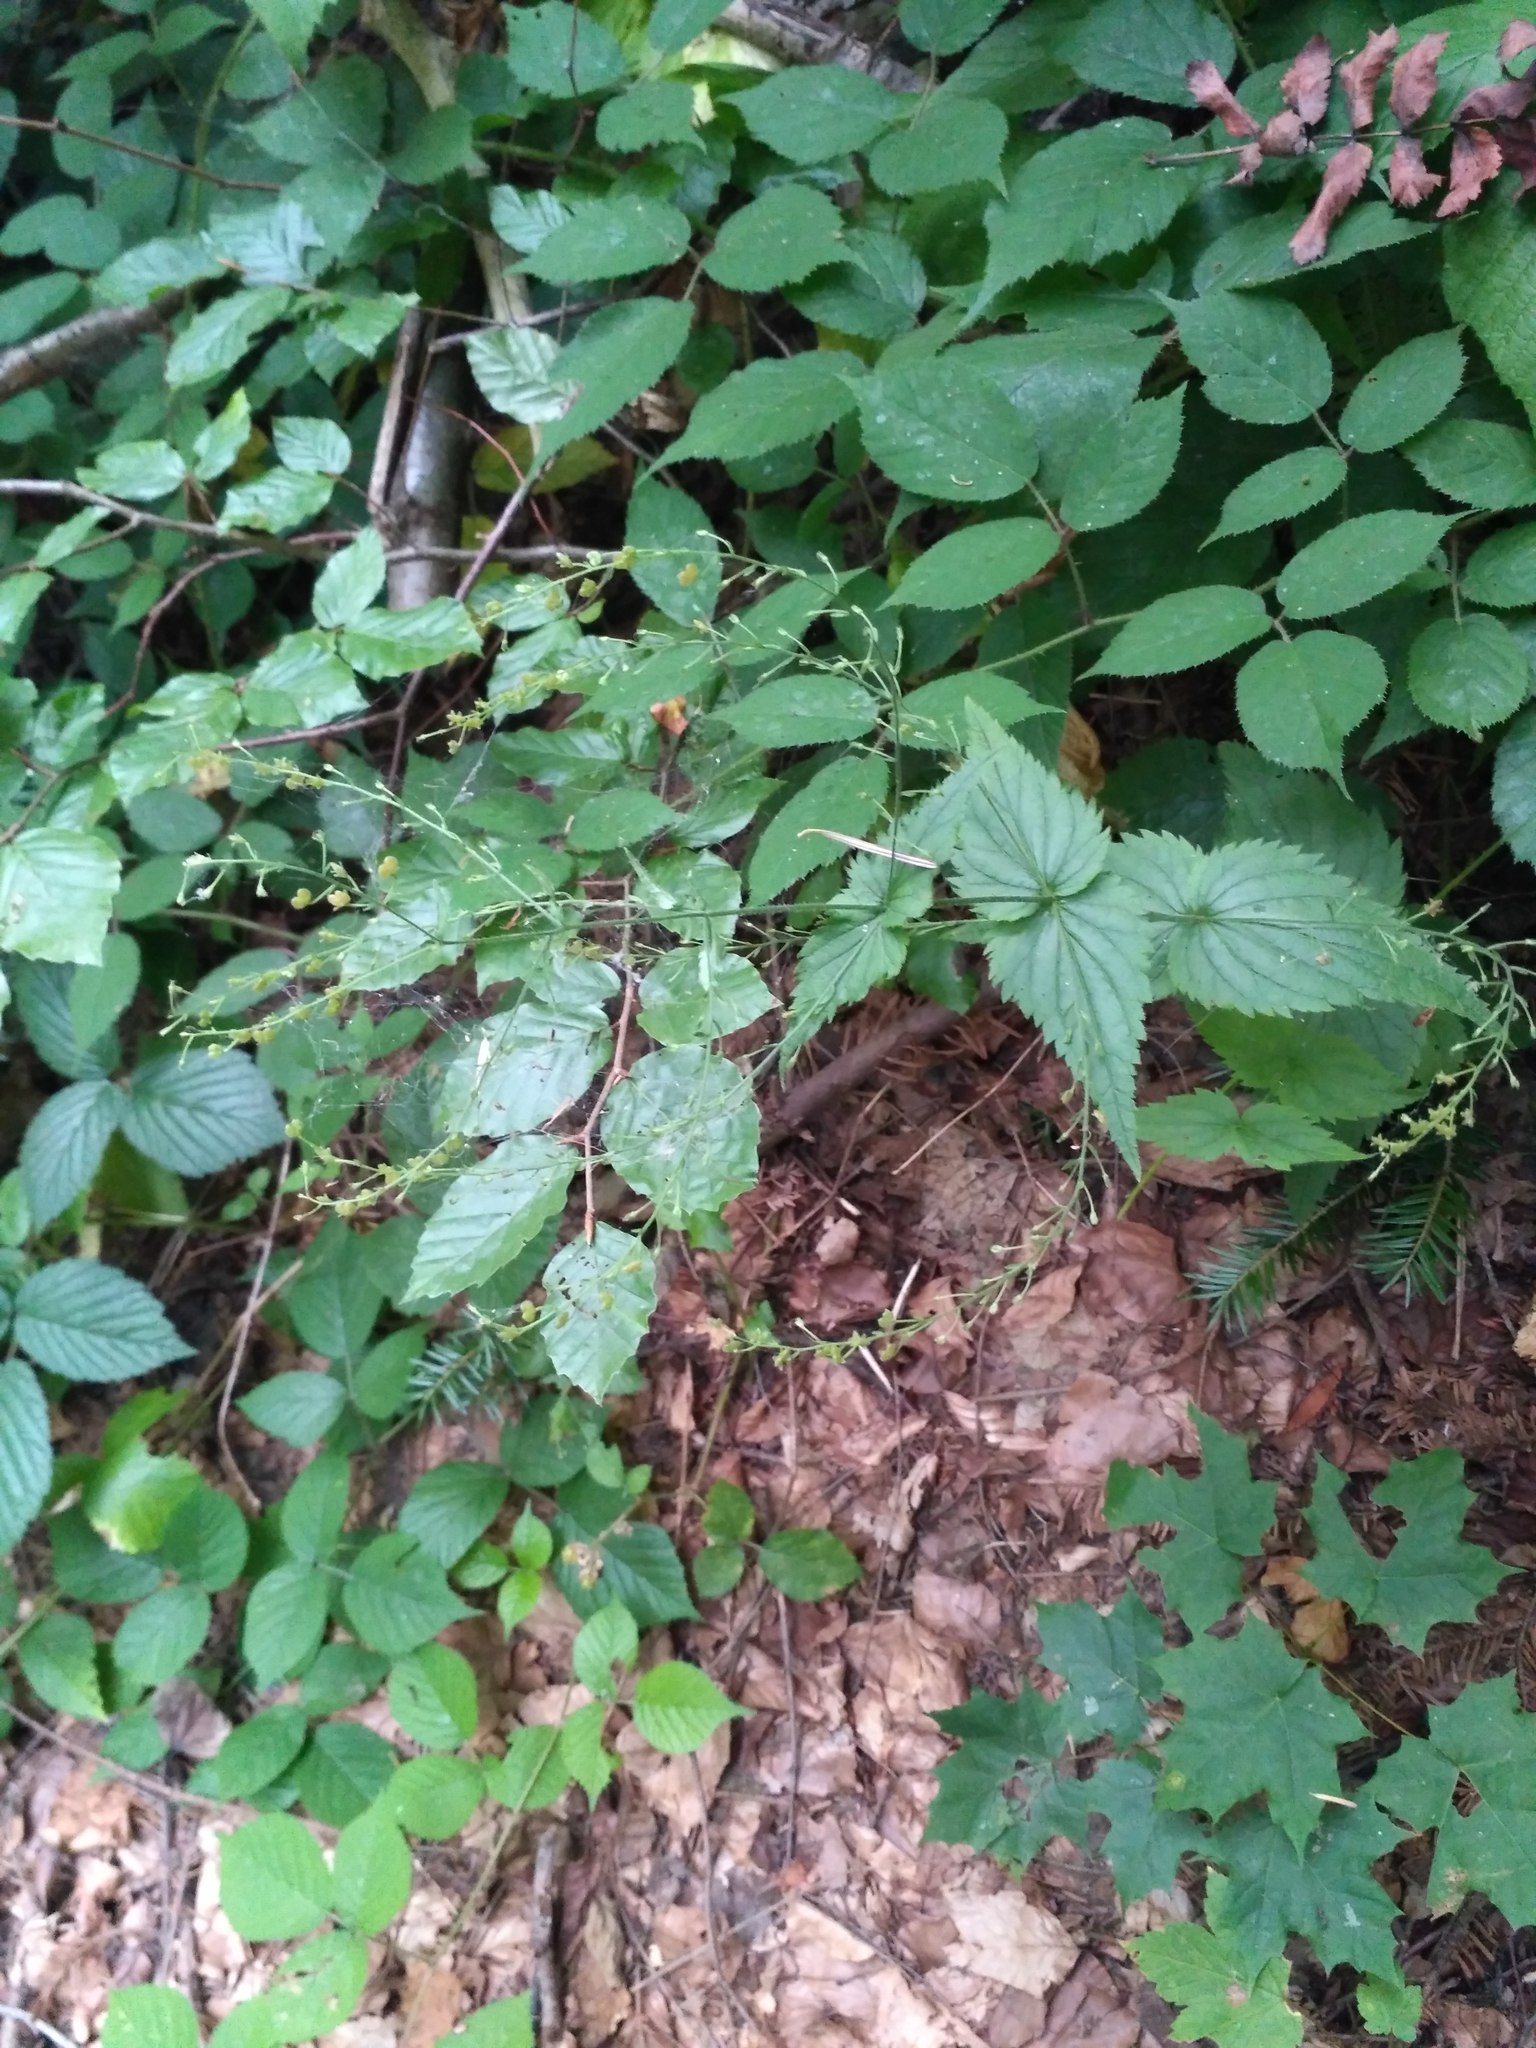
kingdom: Plantae
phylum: Tracheophyta
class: Magnoliopsida
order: Lamiales
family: Plantaginaceae
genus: Veronica
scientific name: Veronica urticifolia
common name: Nettle-leaf speedwell
